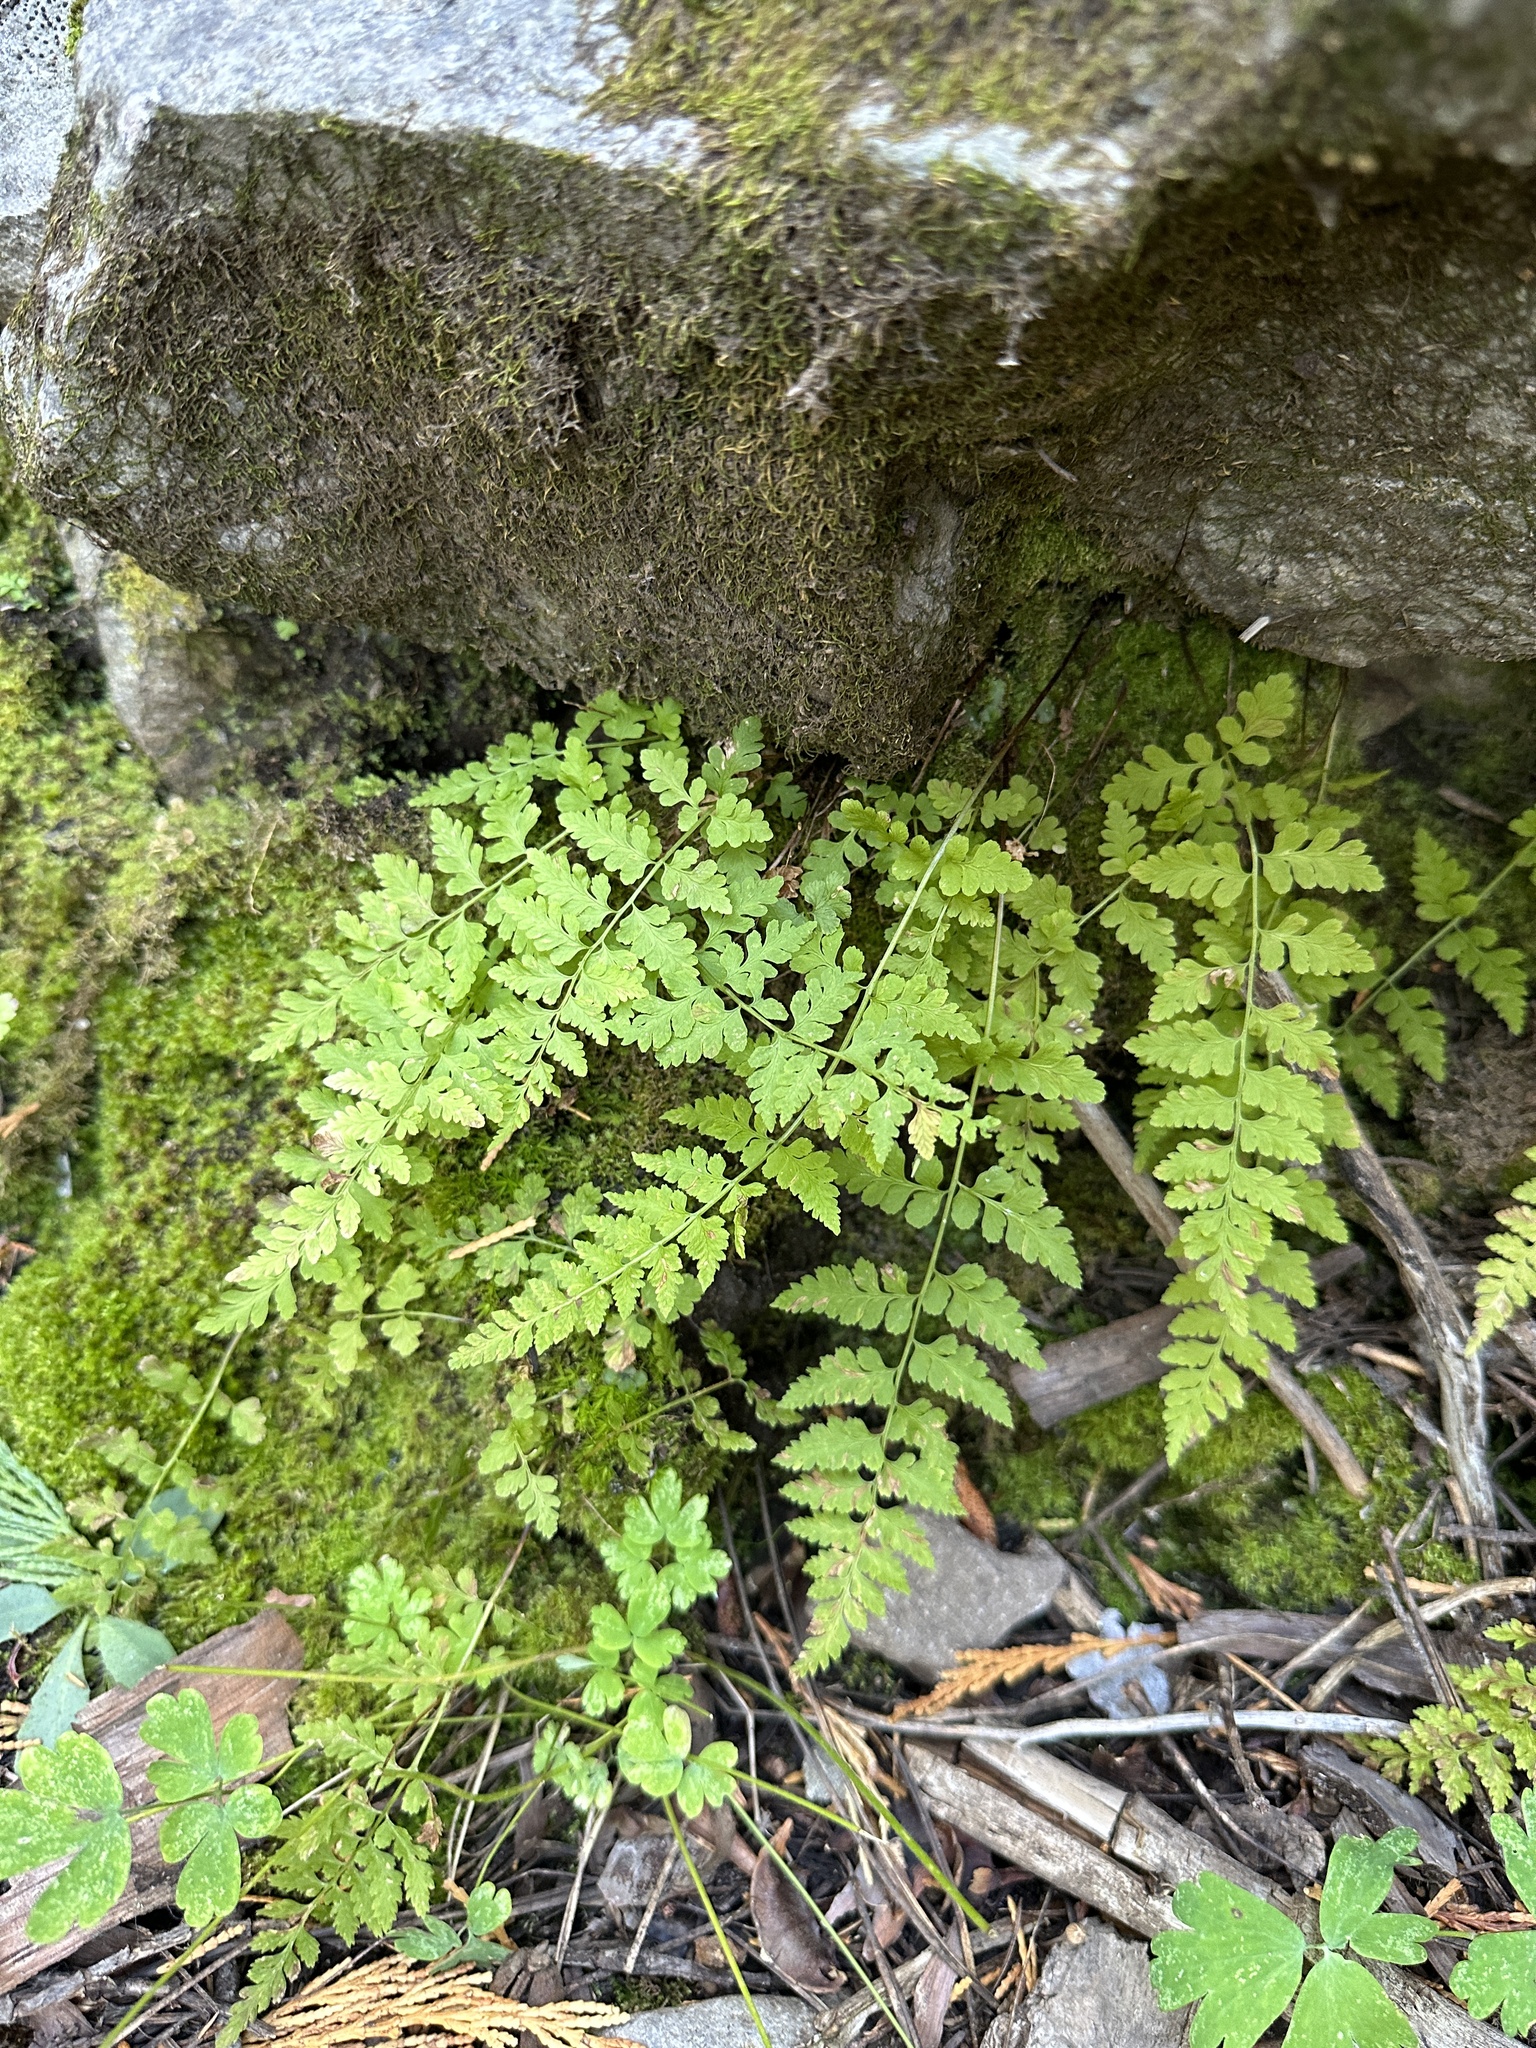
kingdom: Plantae
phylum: Tracheophyta
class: Polypodiopsida
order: Polypodiales
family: Cystopteridaceae
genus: Cystopteris
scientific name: Cystopteris fragilis
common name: Brittle bladder fern
